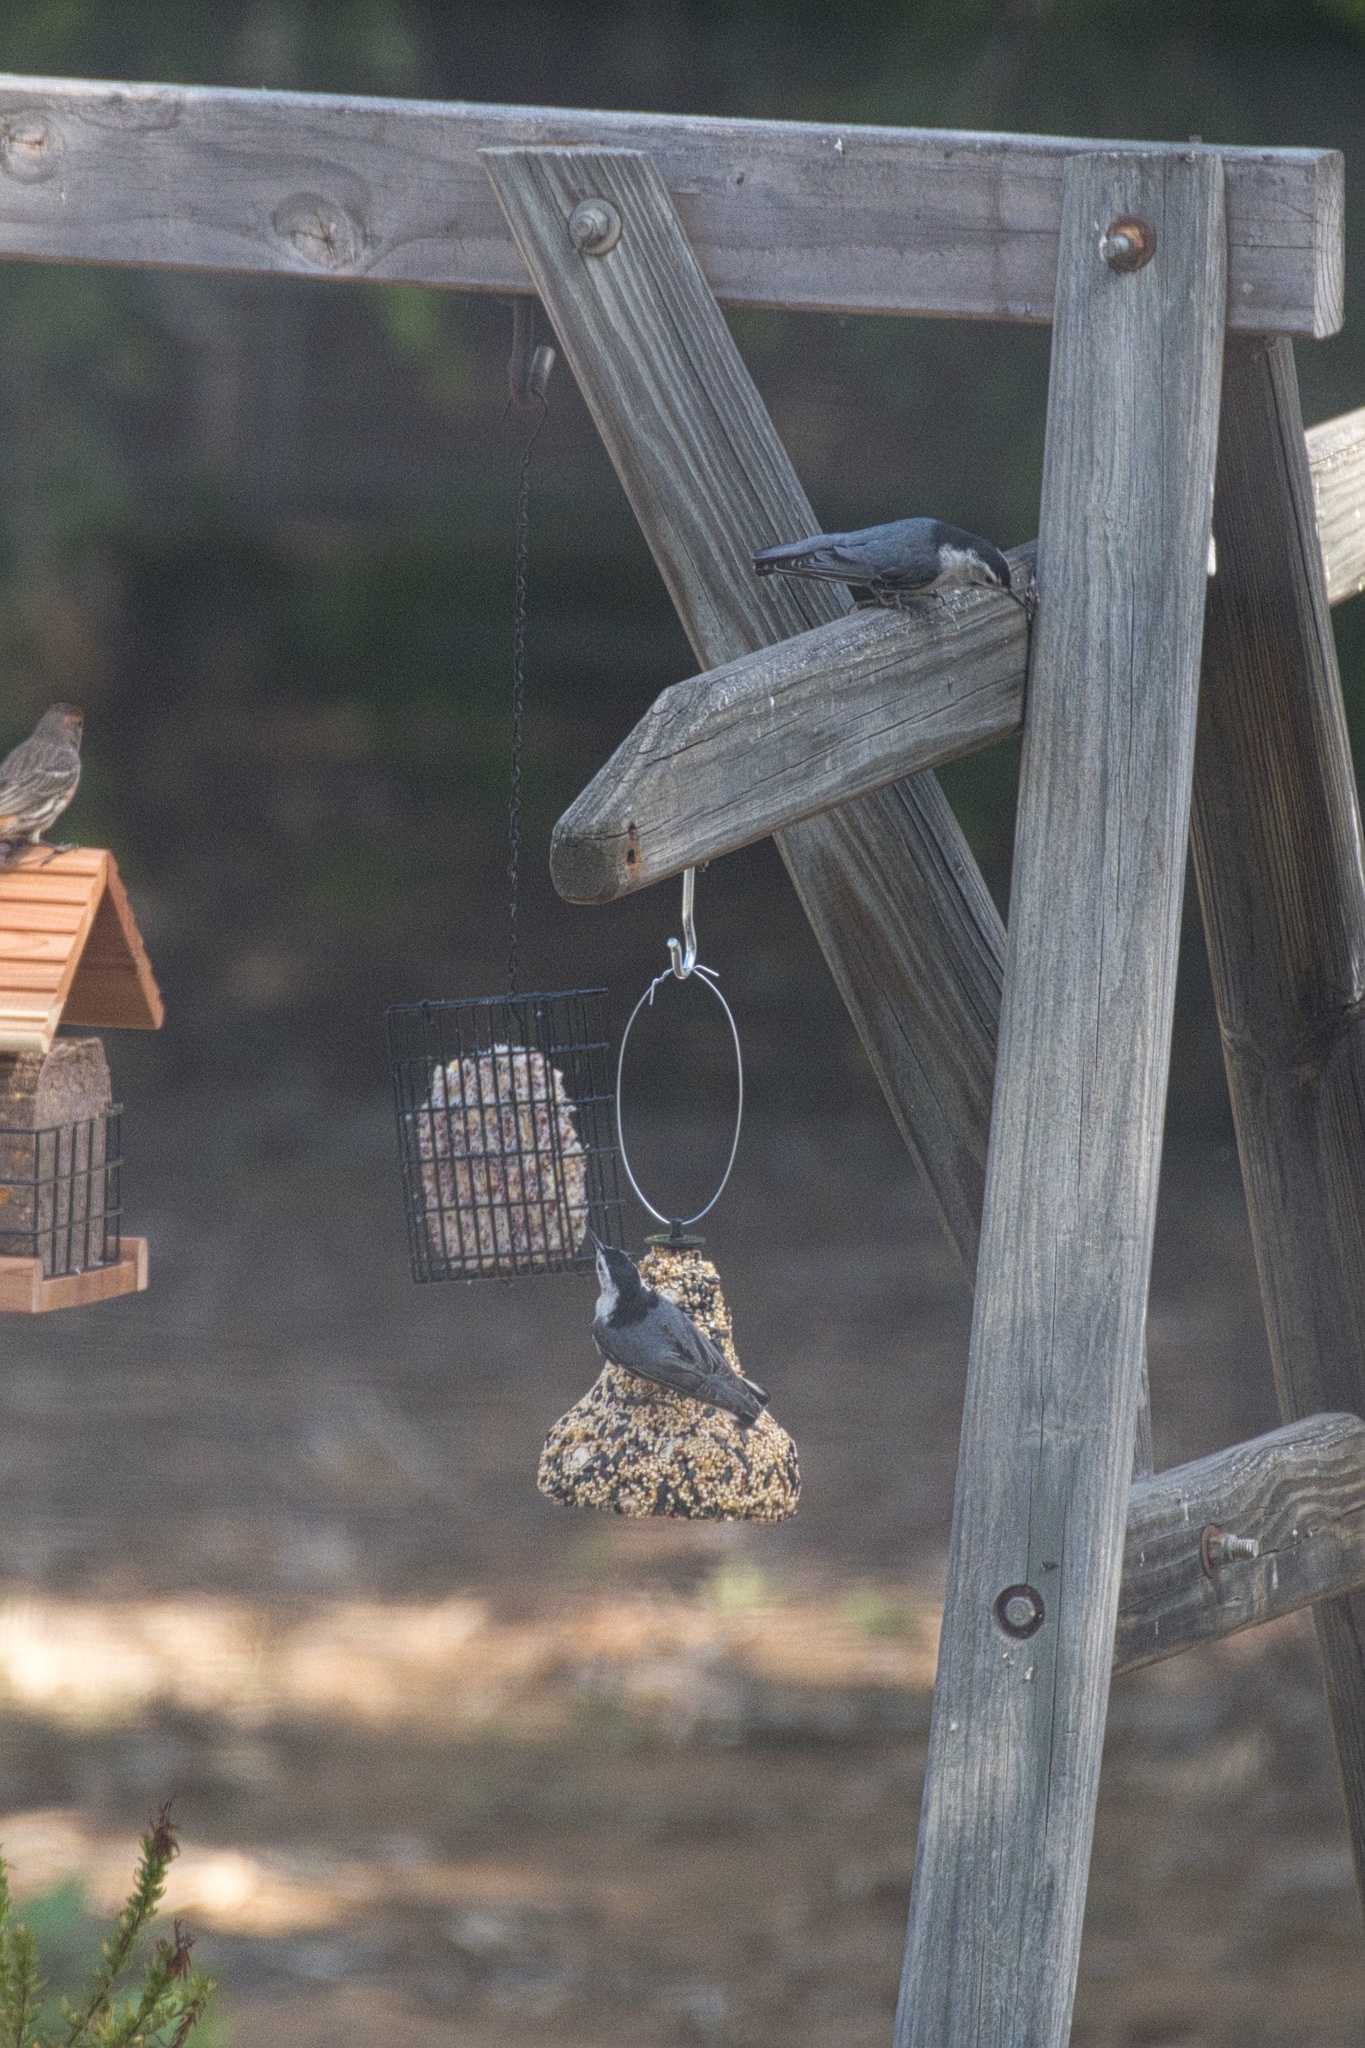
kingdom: Animalia
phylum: Chordata
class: Aves
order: Passeriformes
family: Sittidae
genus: Sitta
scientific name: Sitta carolinensis
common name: White-breasted nuthatch
